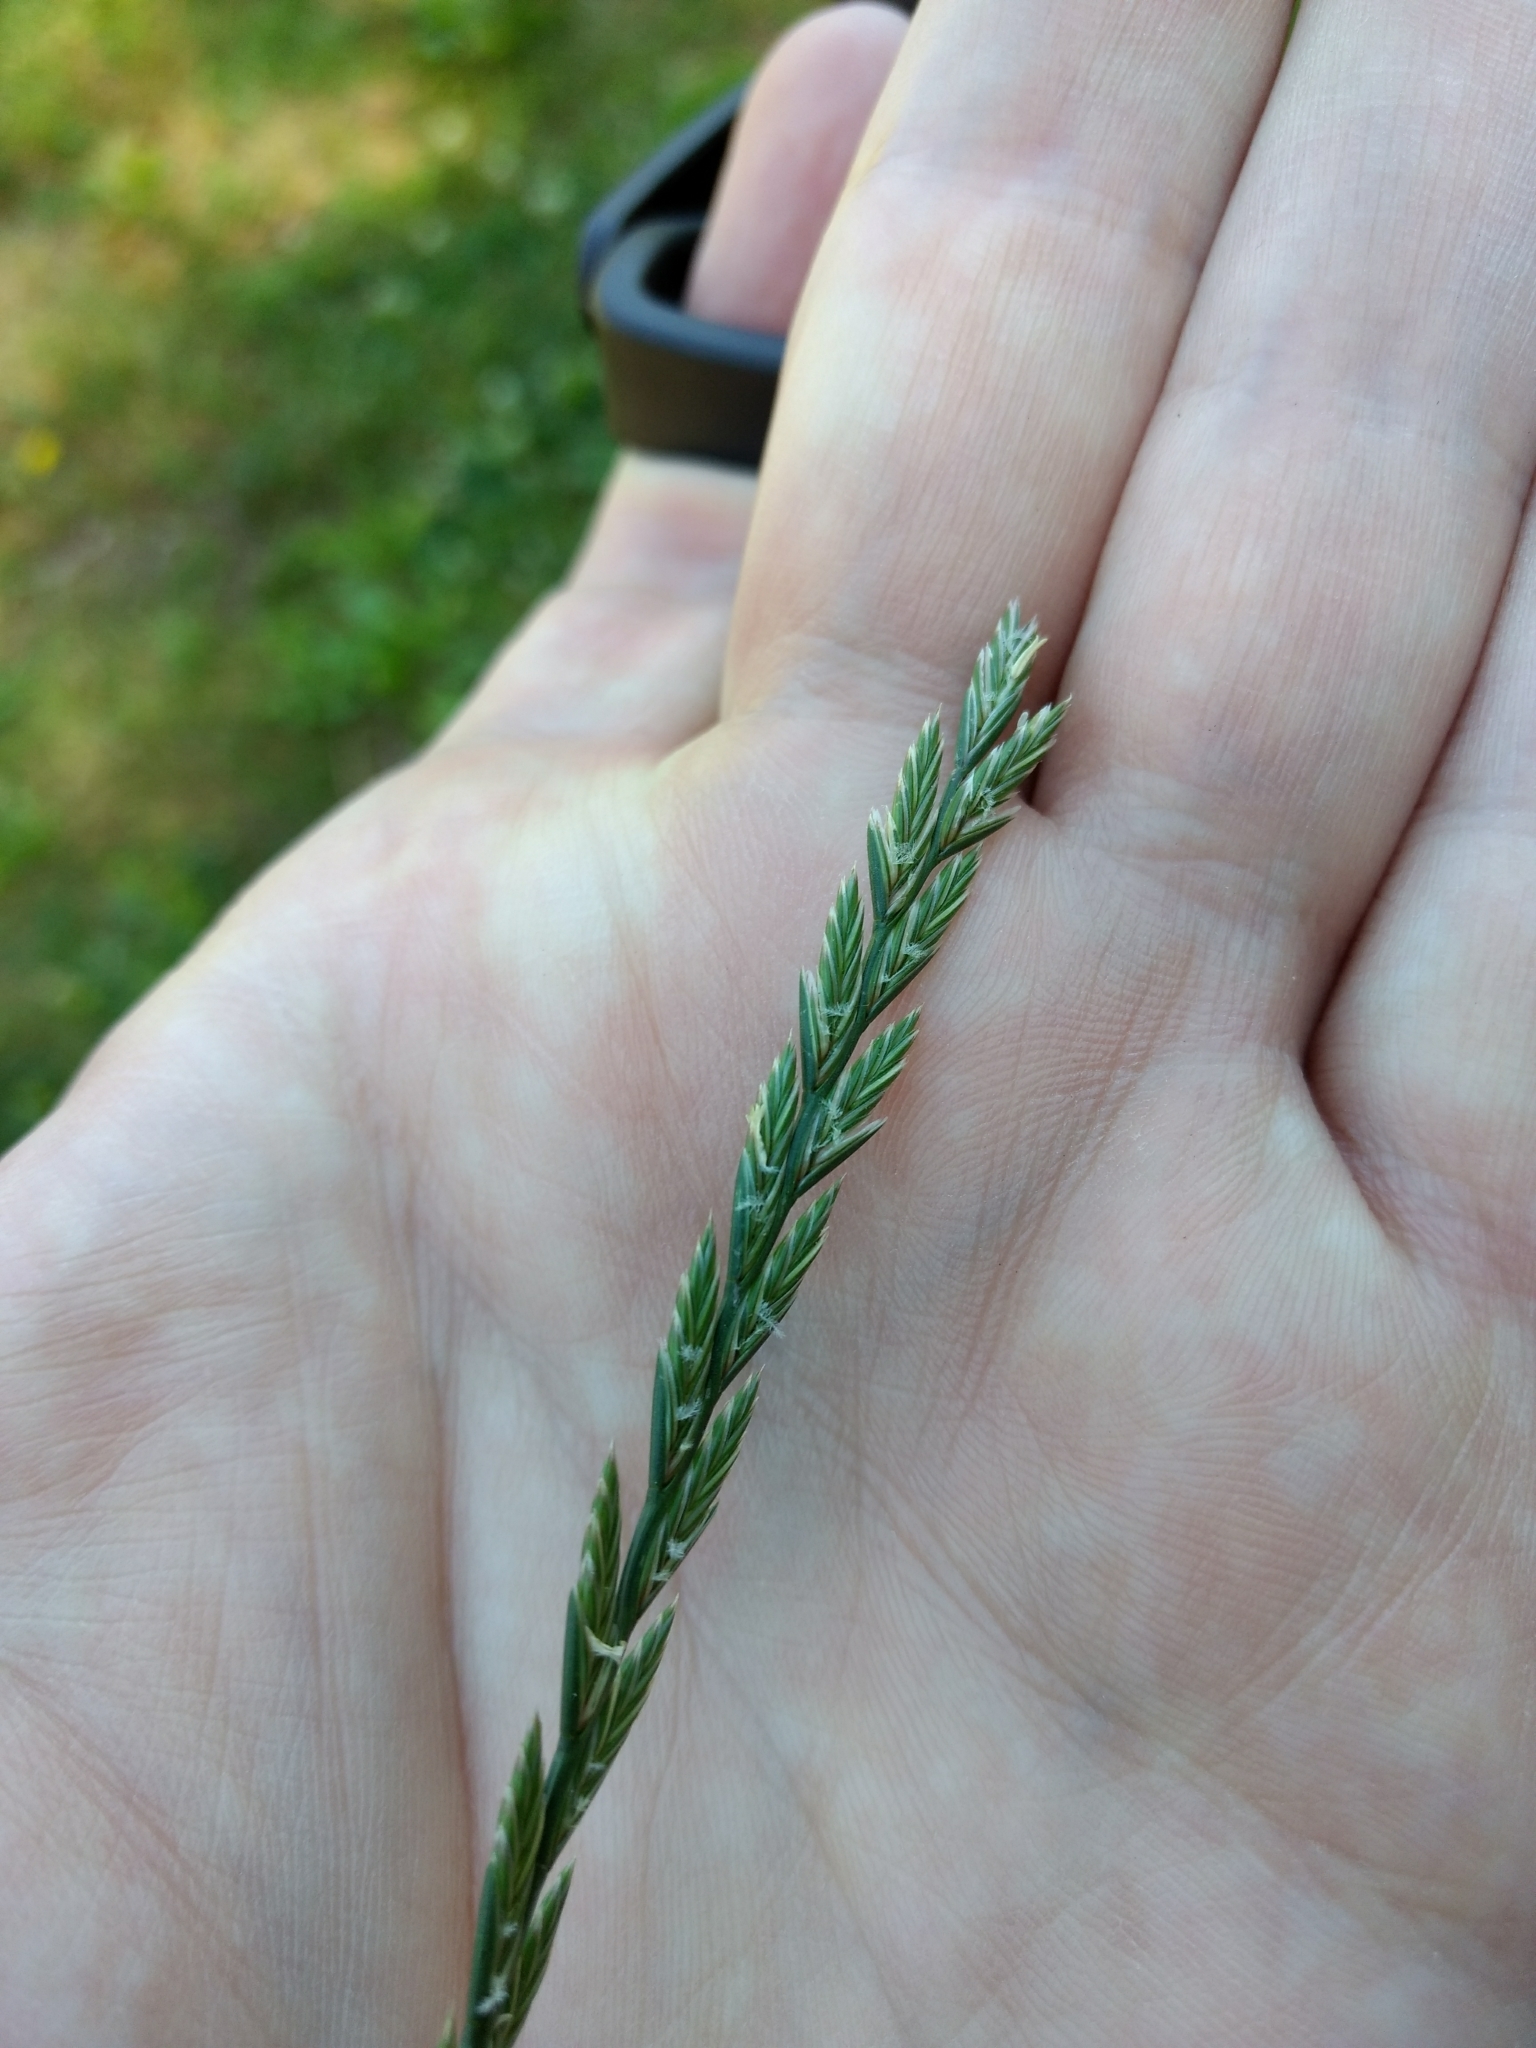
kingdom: Plantae
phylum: Tracheophyta
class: Liliopsida
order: Poales
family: Poaceae
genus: Lolium
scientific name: Lolium perenne
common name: Perennial ryegrass
